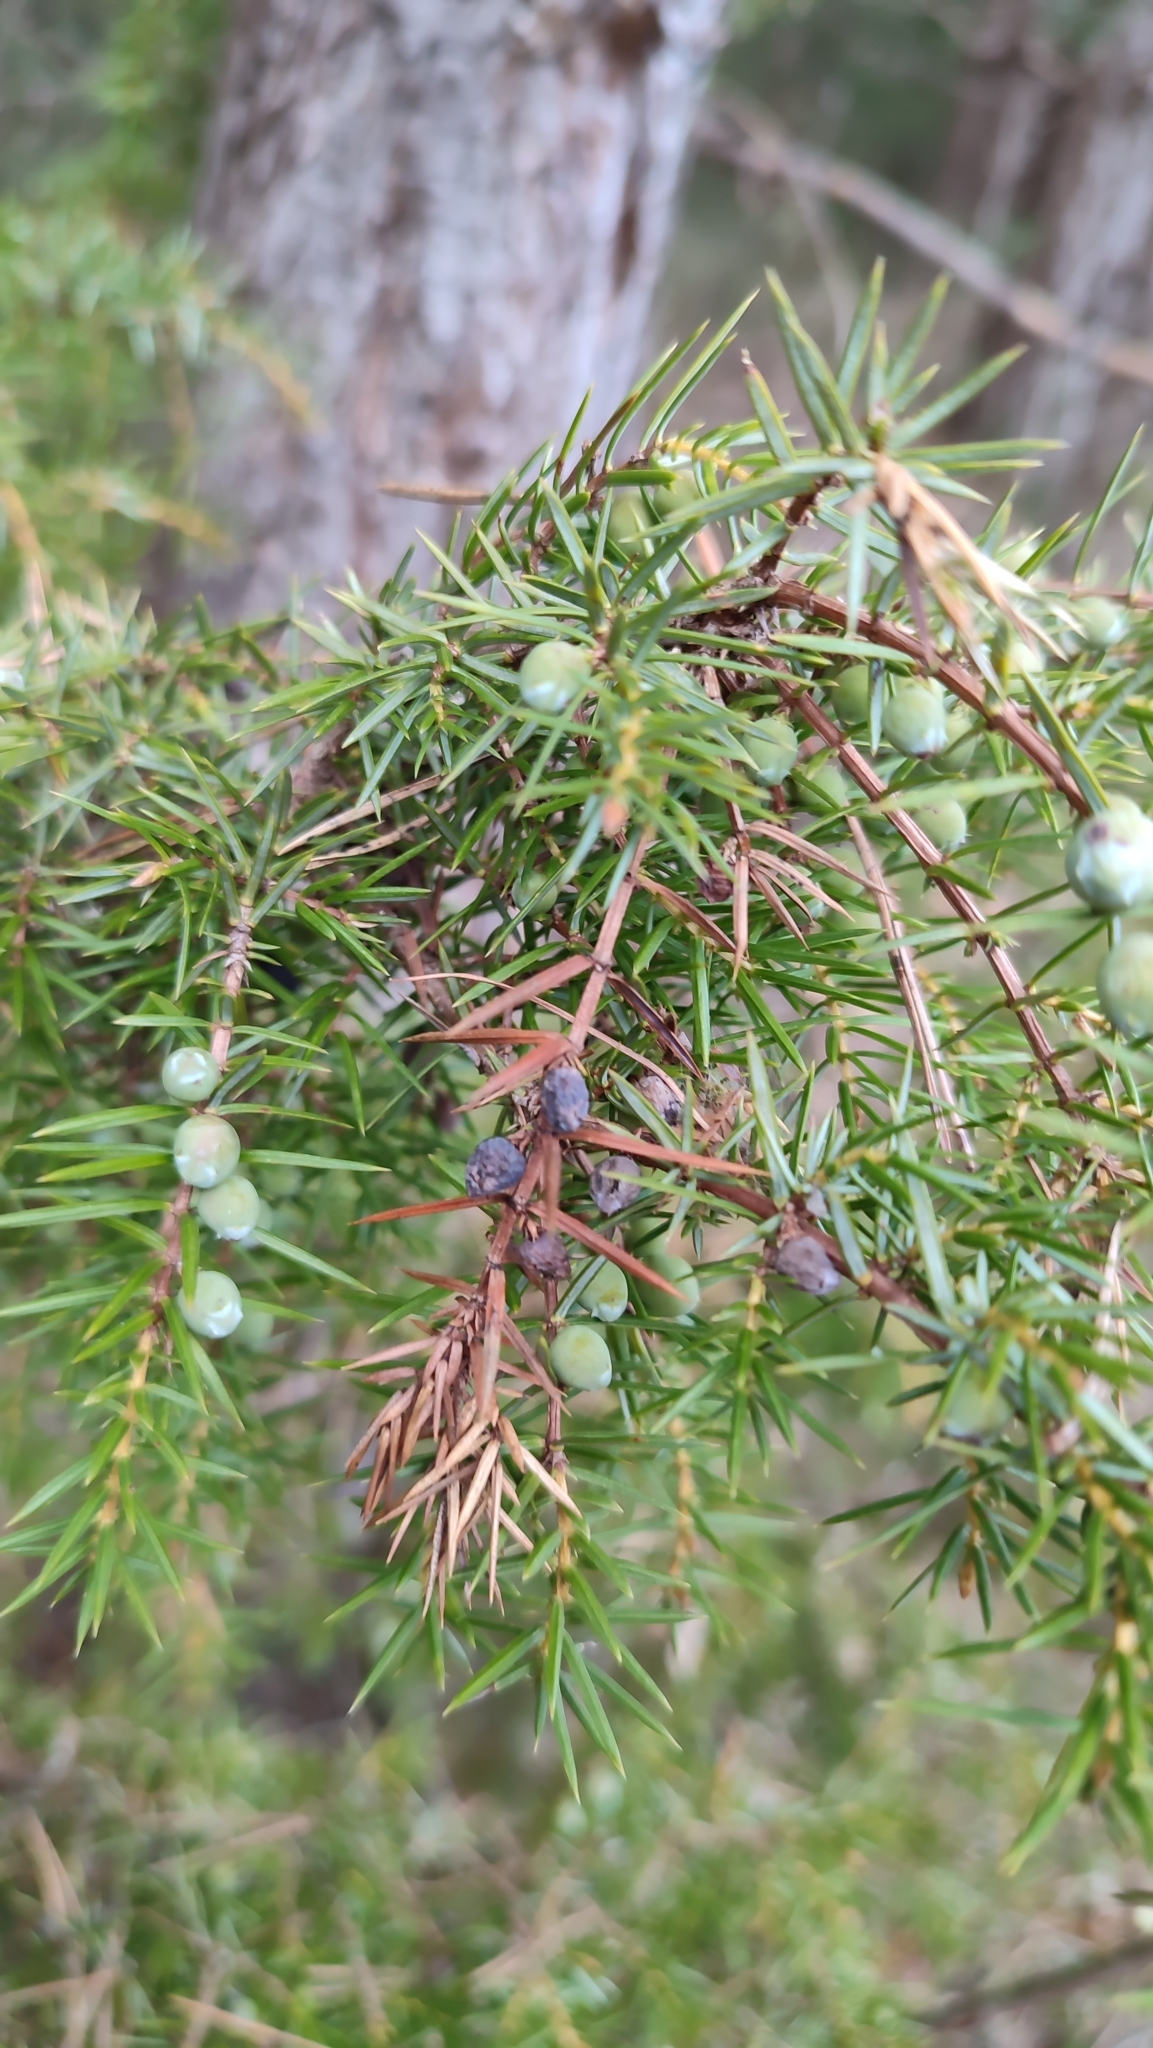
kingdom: Plantae
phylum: Tracheophyta
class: Pinopsida
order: Pinales
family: Cupressaceae
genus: Juniperus
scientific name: Juniperus communis
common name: Common juniper
